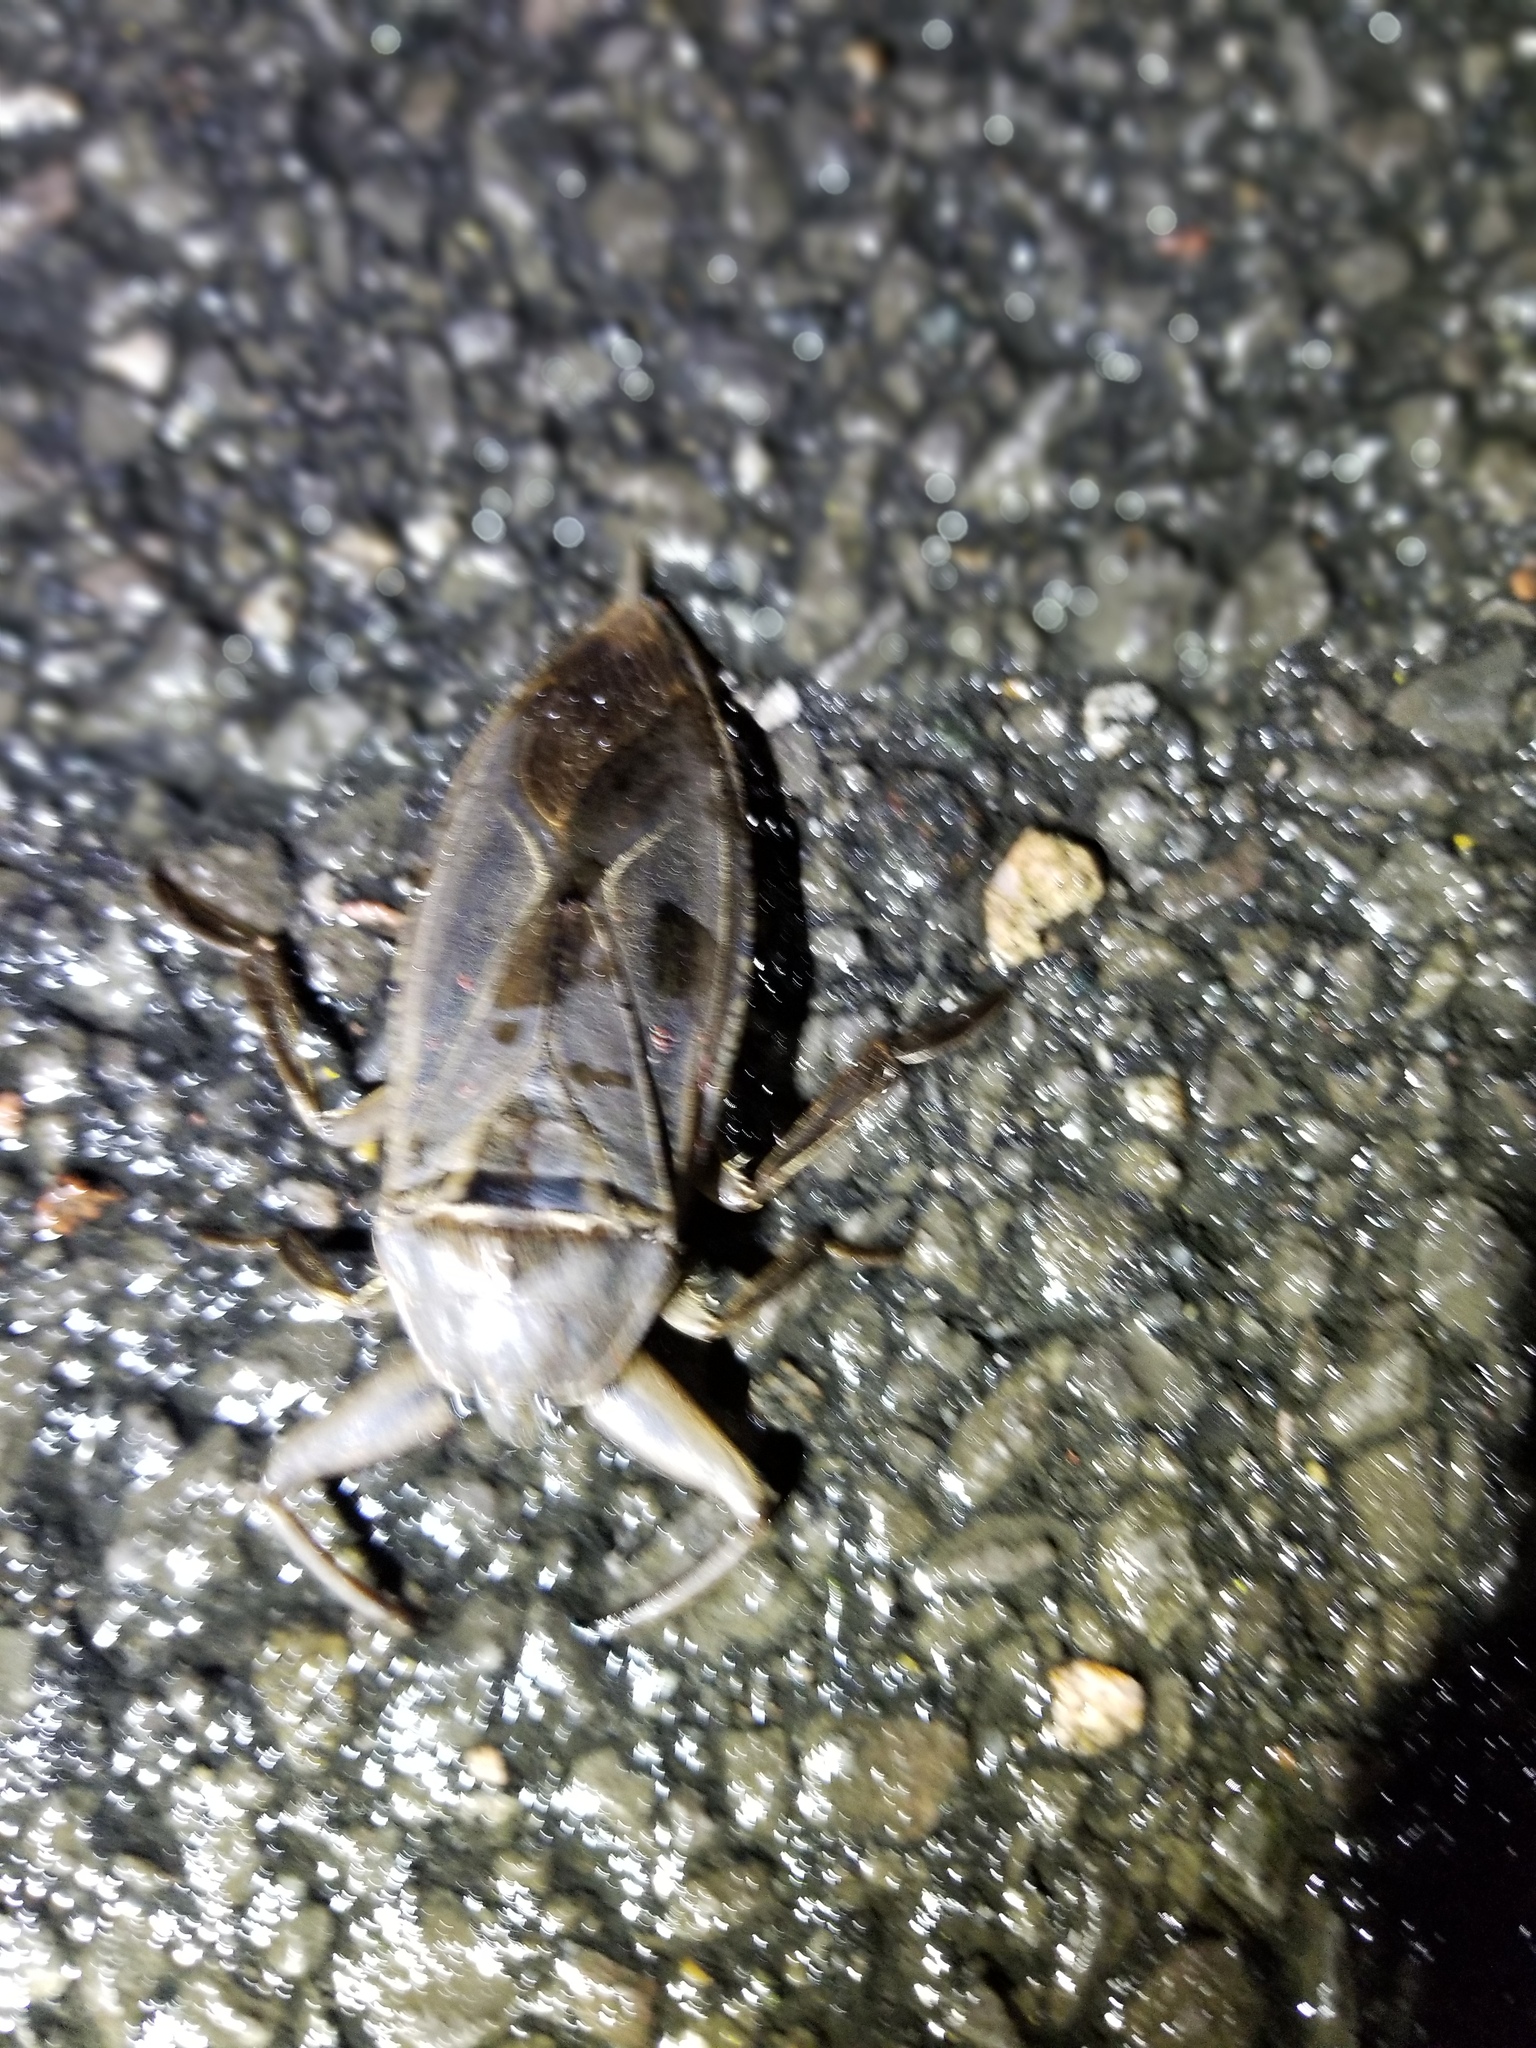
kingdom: Animalia
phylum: Arthropoda
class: Insecta
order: Hemiptera
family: Belostomatidae
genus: Lethocerus
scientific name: Lethocerus americanus
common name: Giant water bug
